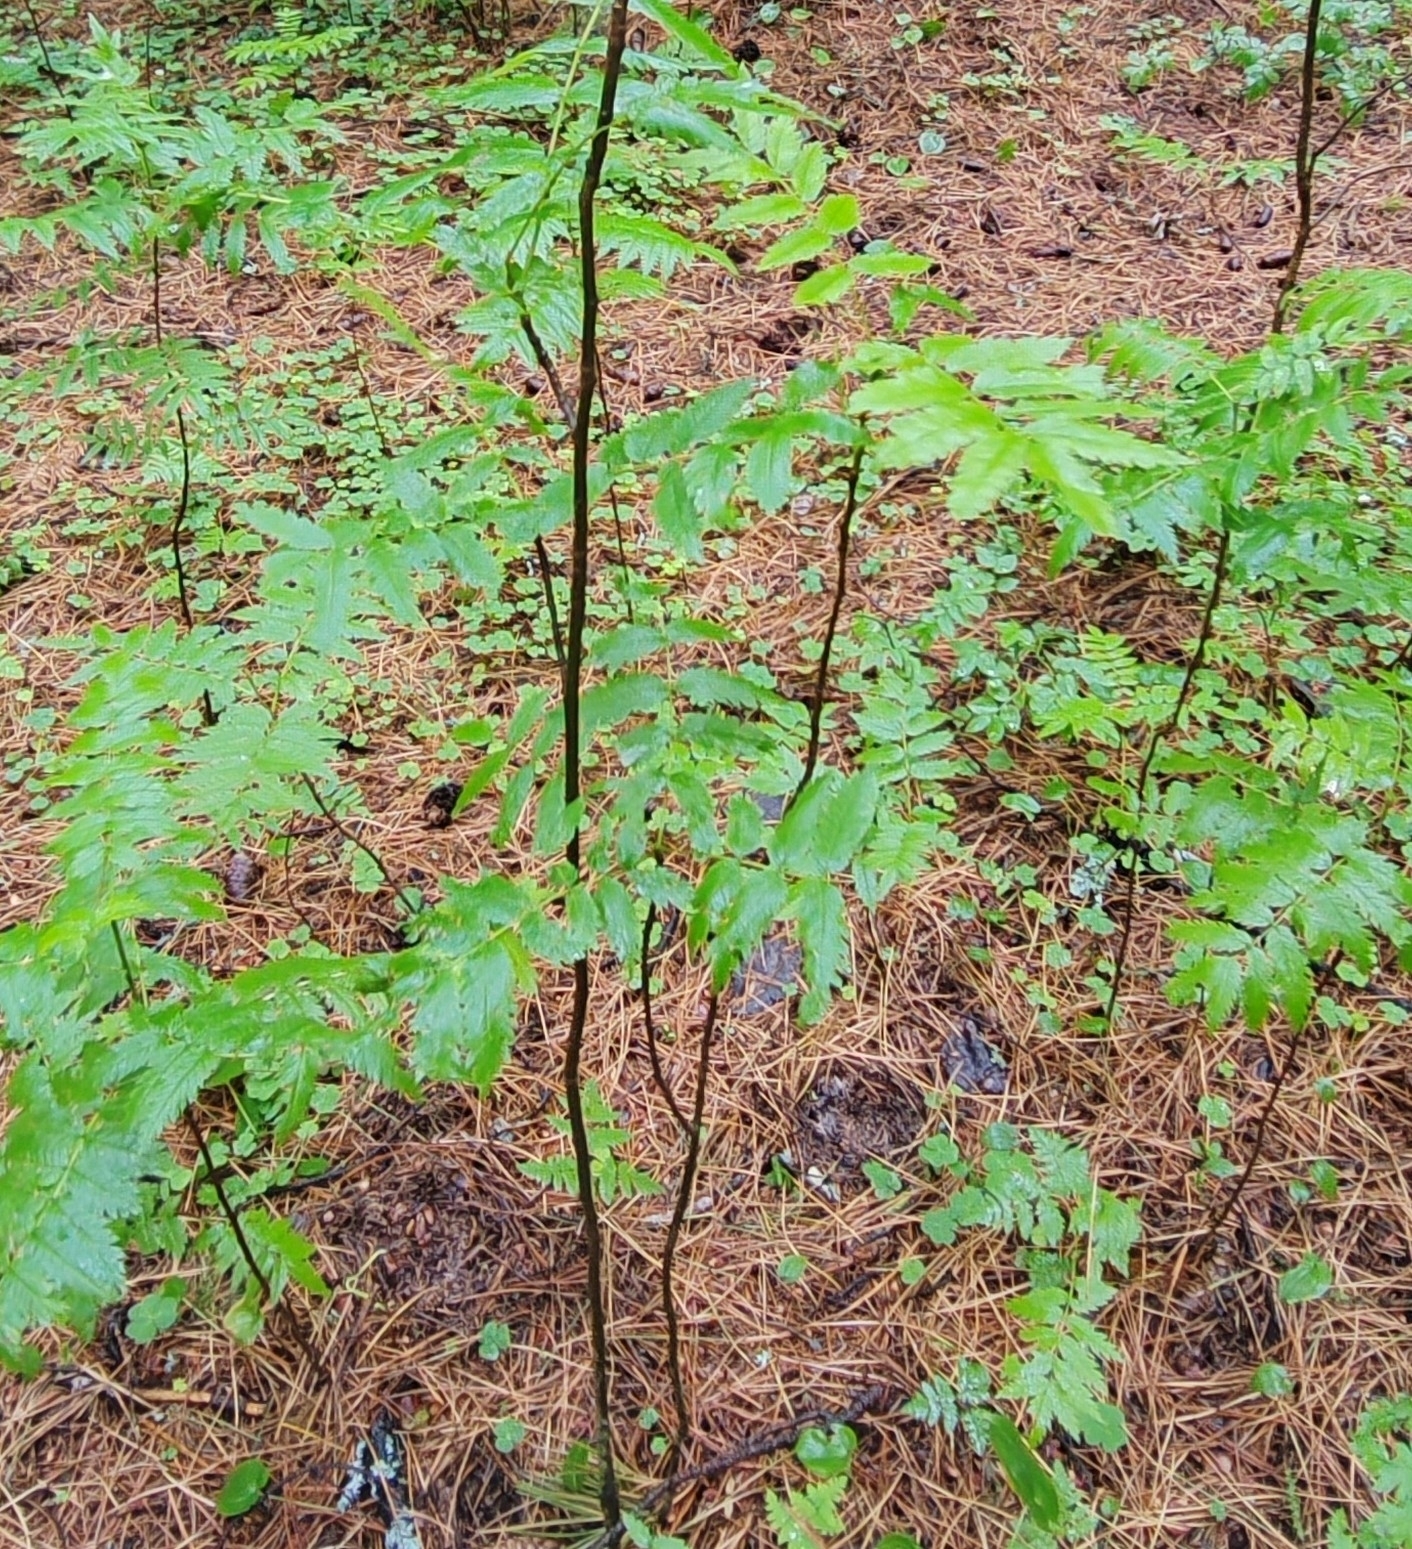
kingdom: Plantae
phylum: Tracheophyta
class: Magnoliopsida
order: Rosales
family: Rosaceae
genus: Sorbus
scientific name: Sorbus aucuparia
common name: Rowan
